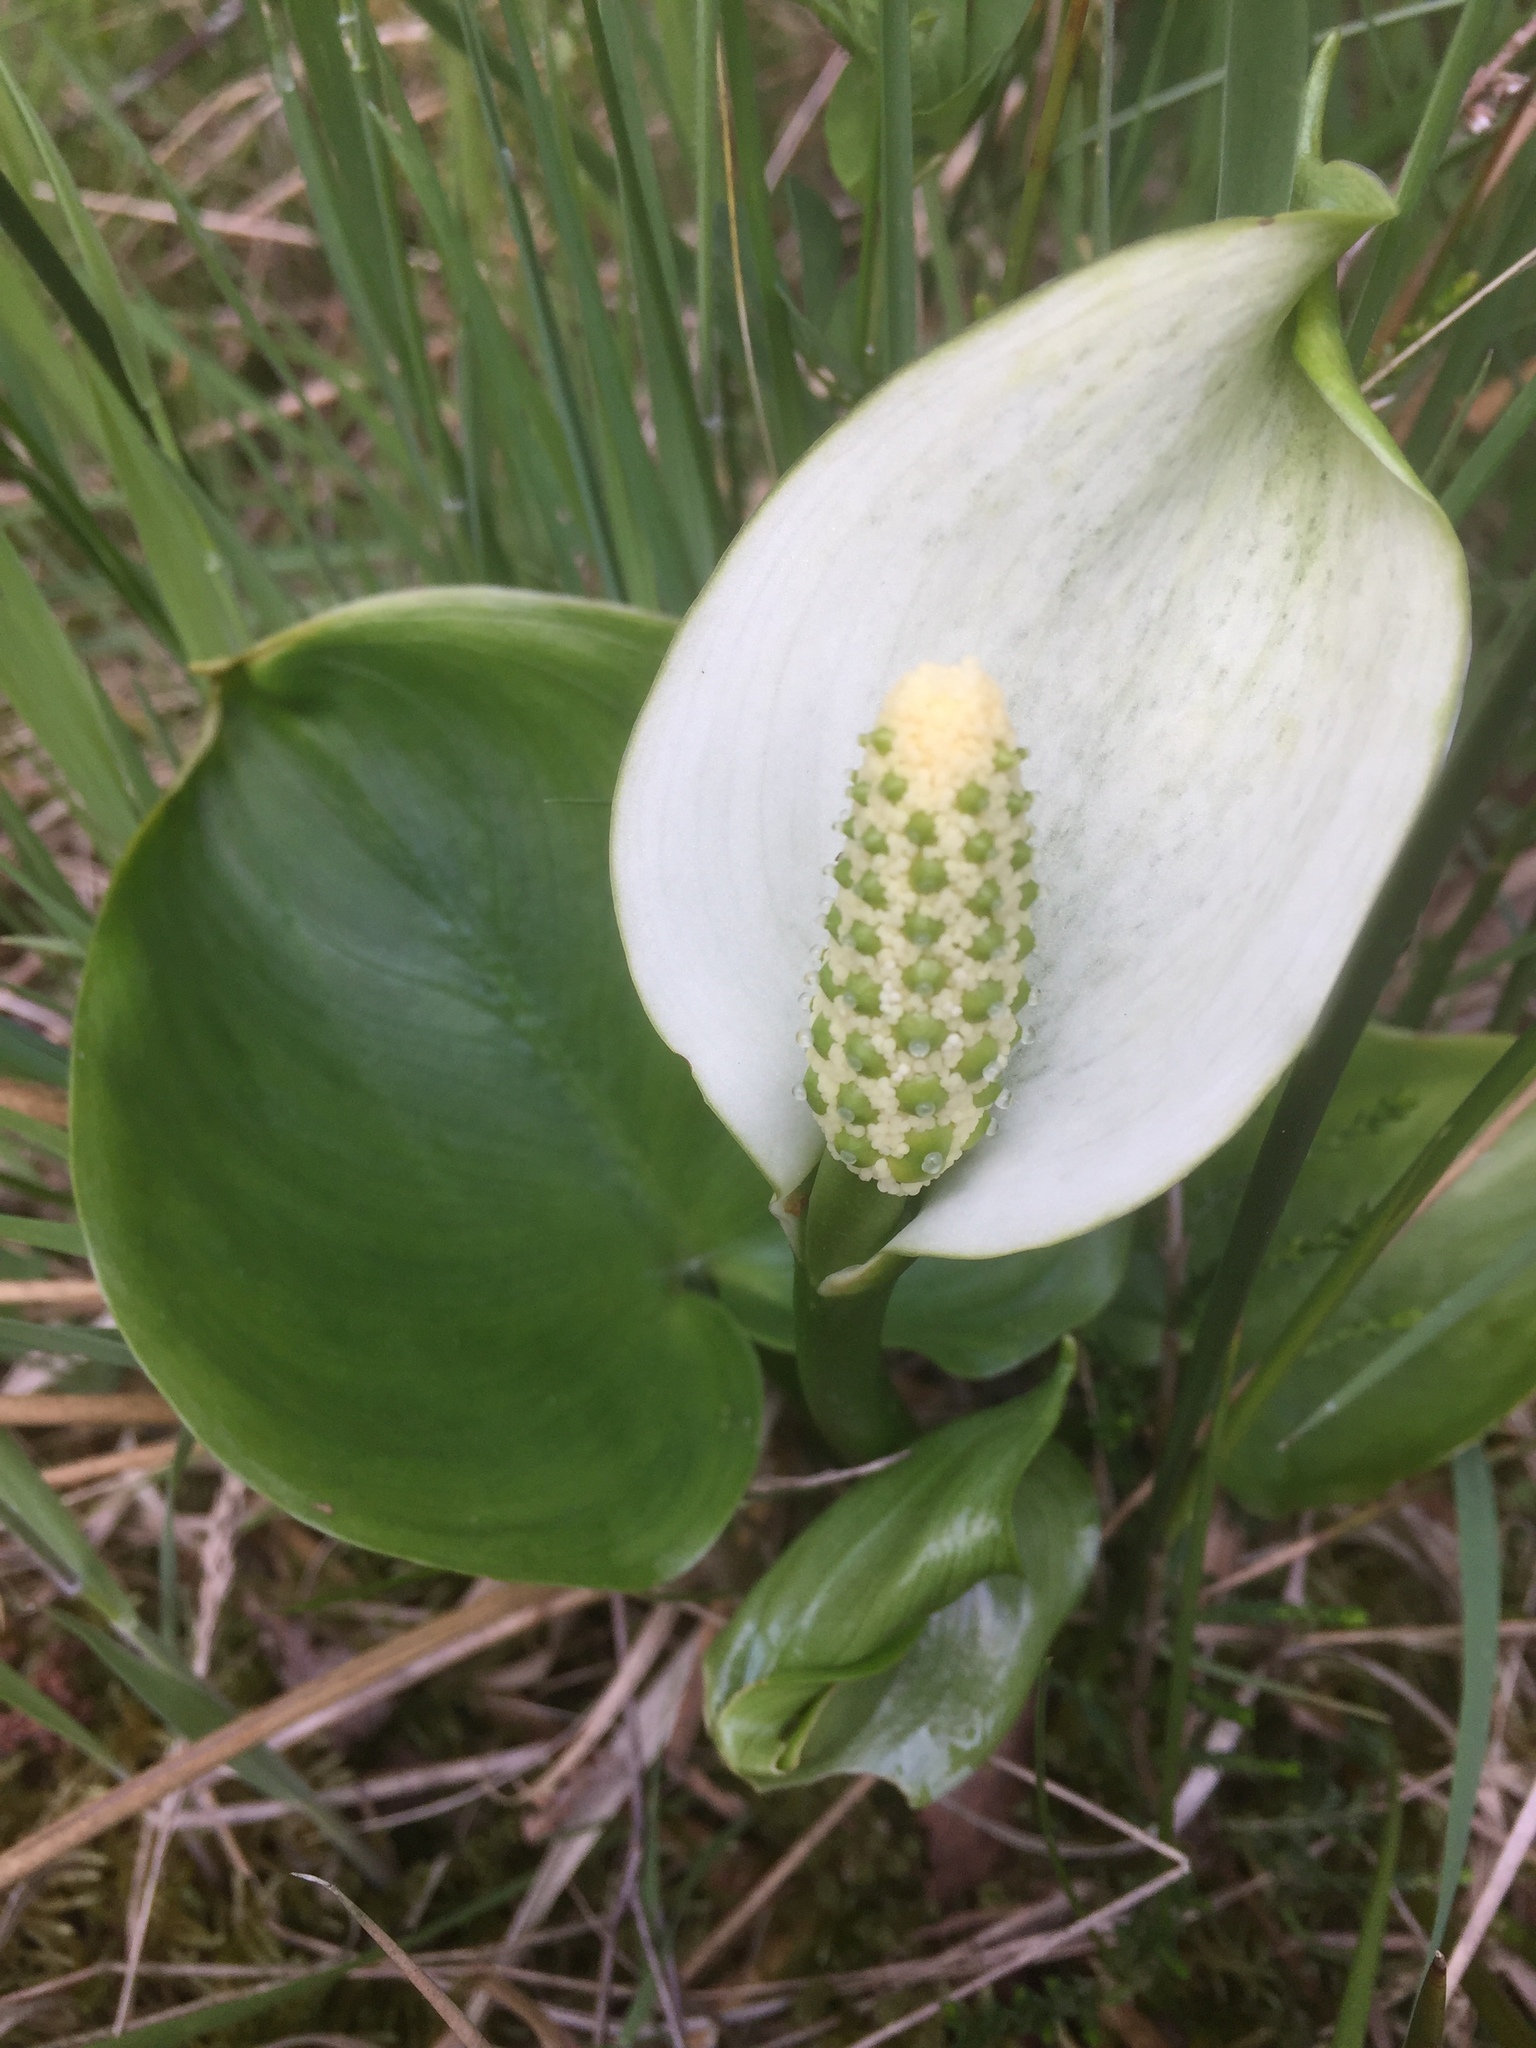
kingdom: Plantae
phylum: Tracheophyta
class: Liliopsida
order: Alismatales
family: Araceae
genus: Calla
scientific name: Calla palustris
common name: Bog arum
